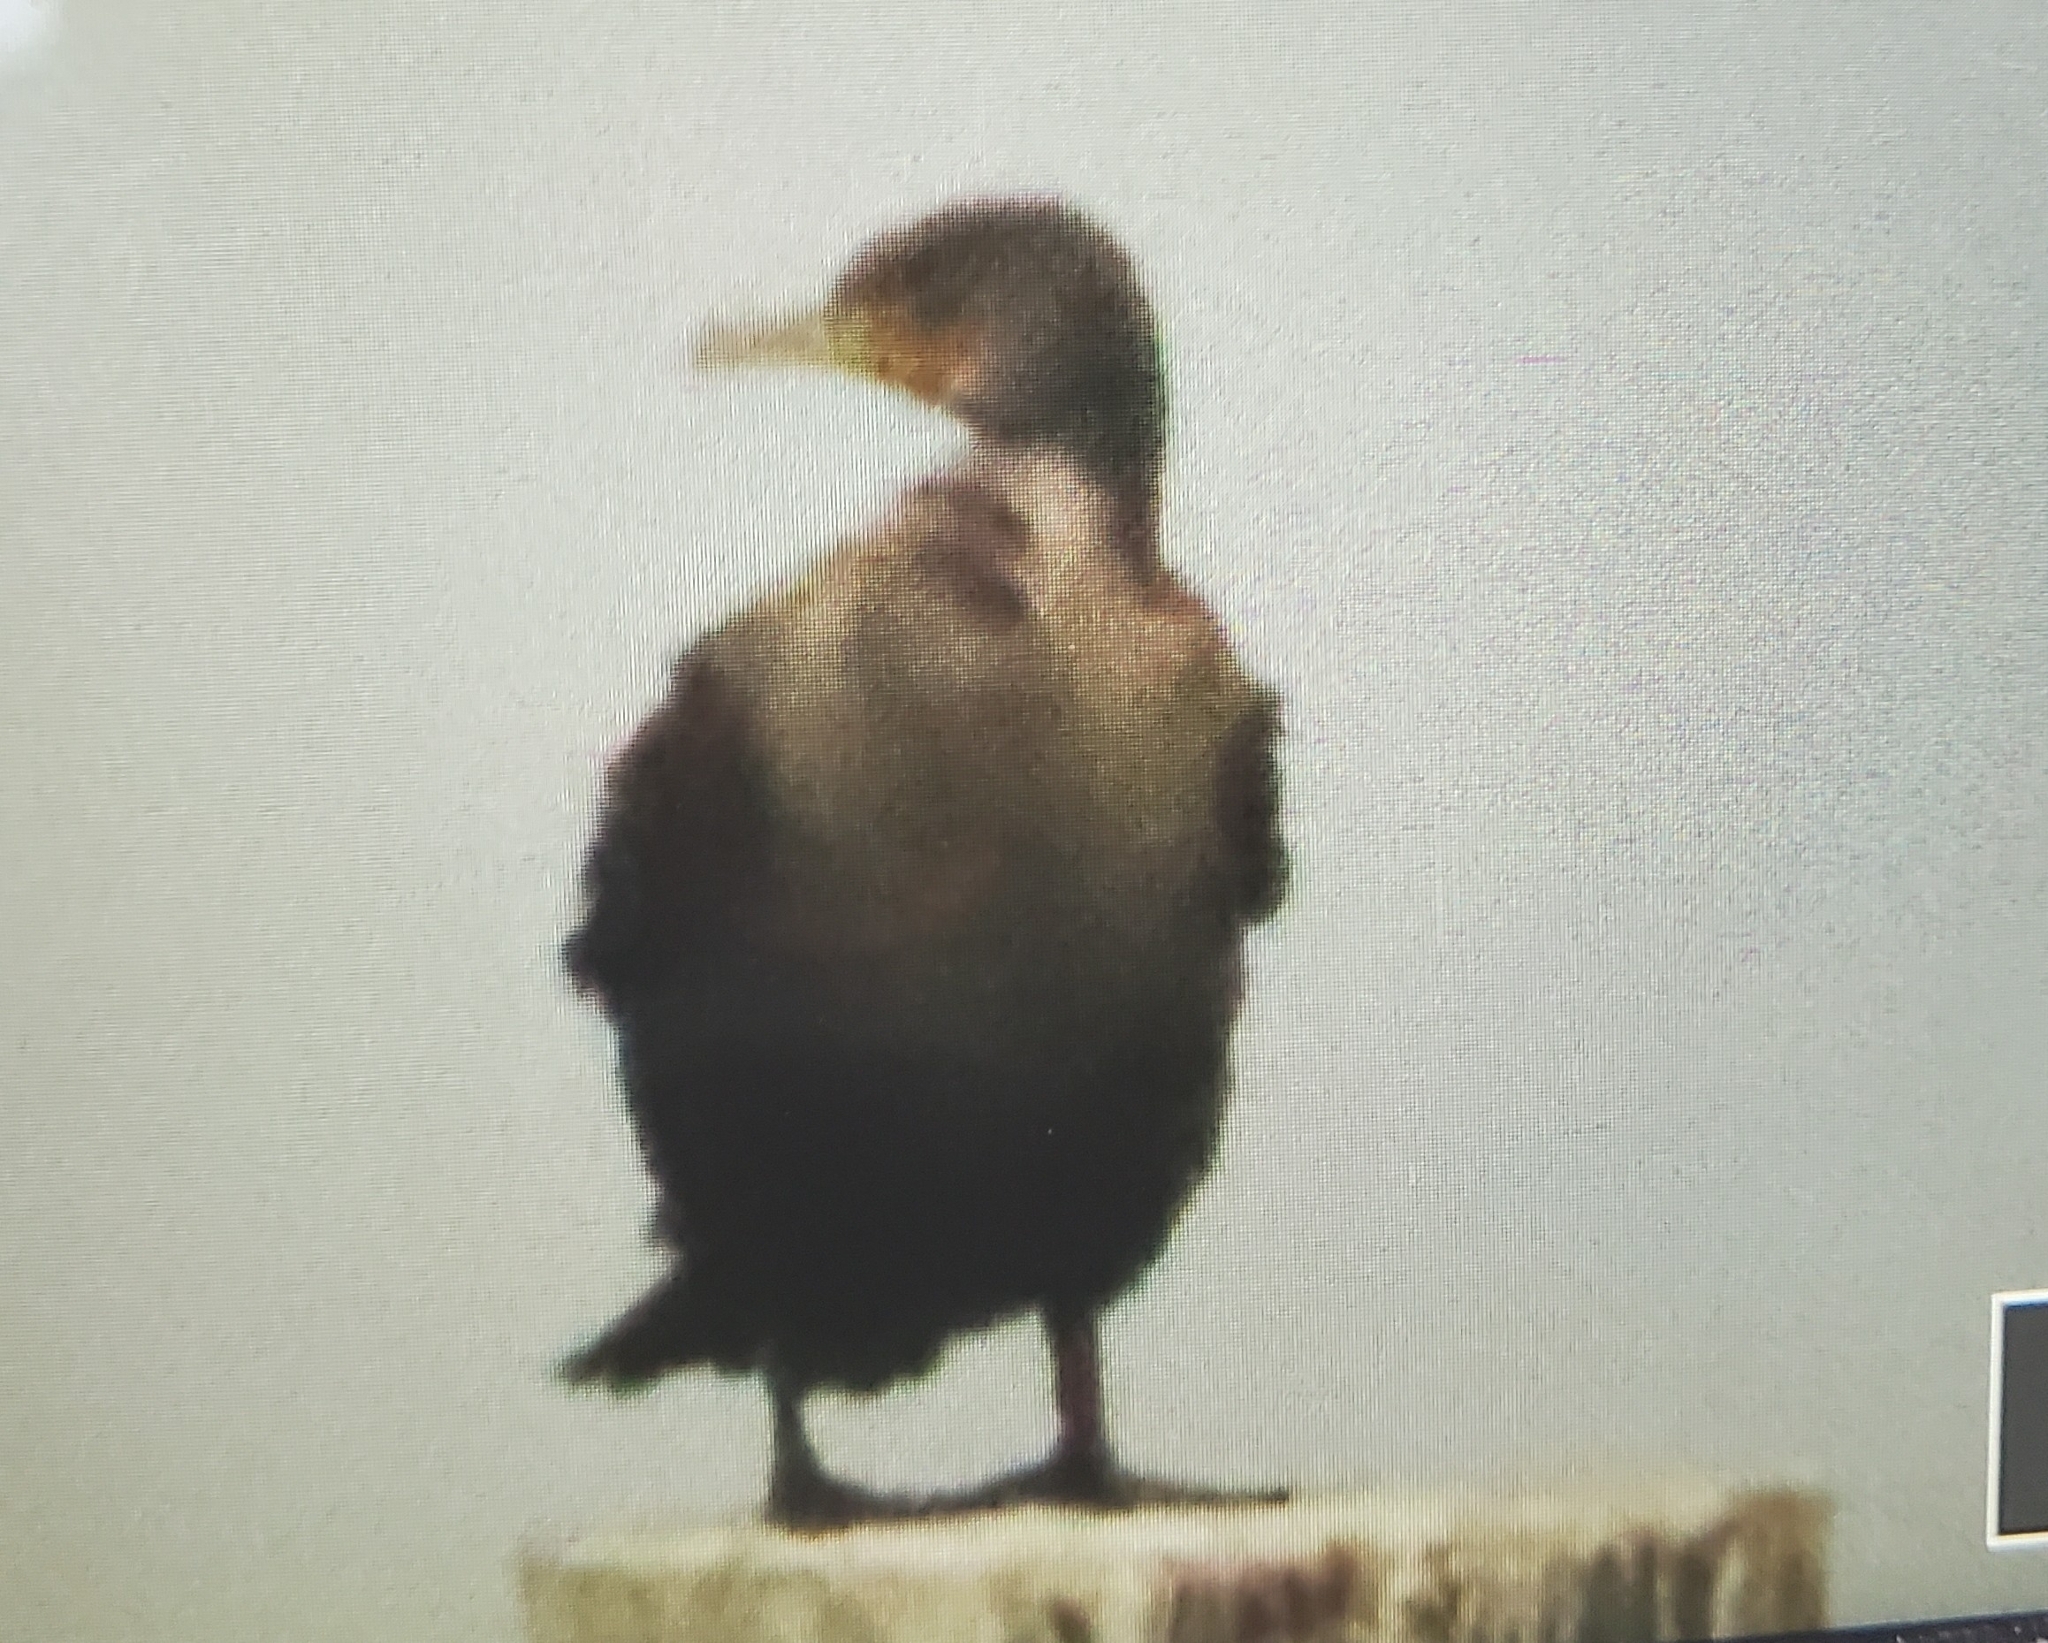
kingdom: Animalia
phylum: Chordata
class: Aves
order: Suliformes
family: Phalacrocoracidae
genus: Phalacrocorax
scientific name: Phalacrocorax auritus
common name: Double-crested cormorant
